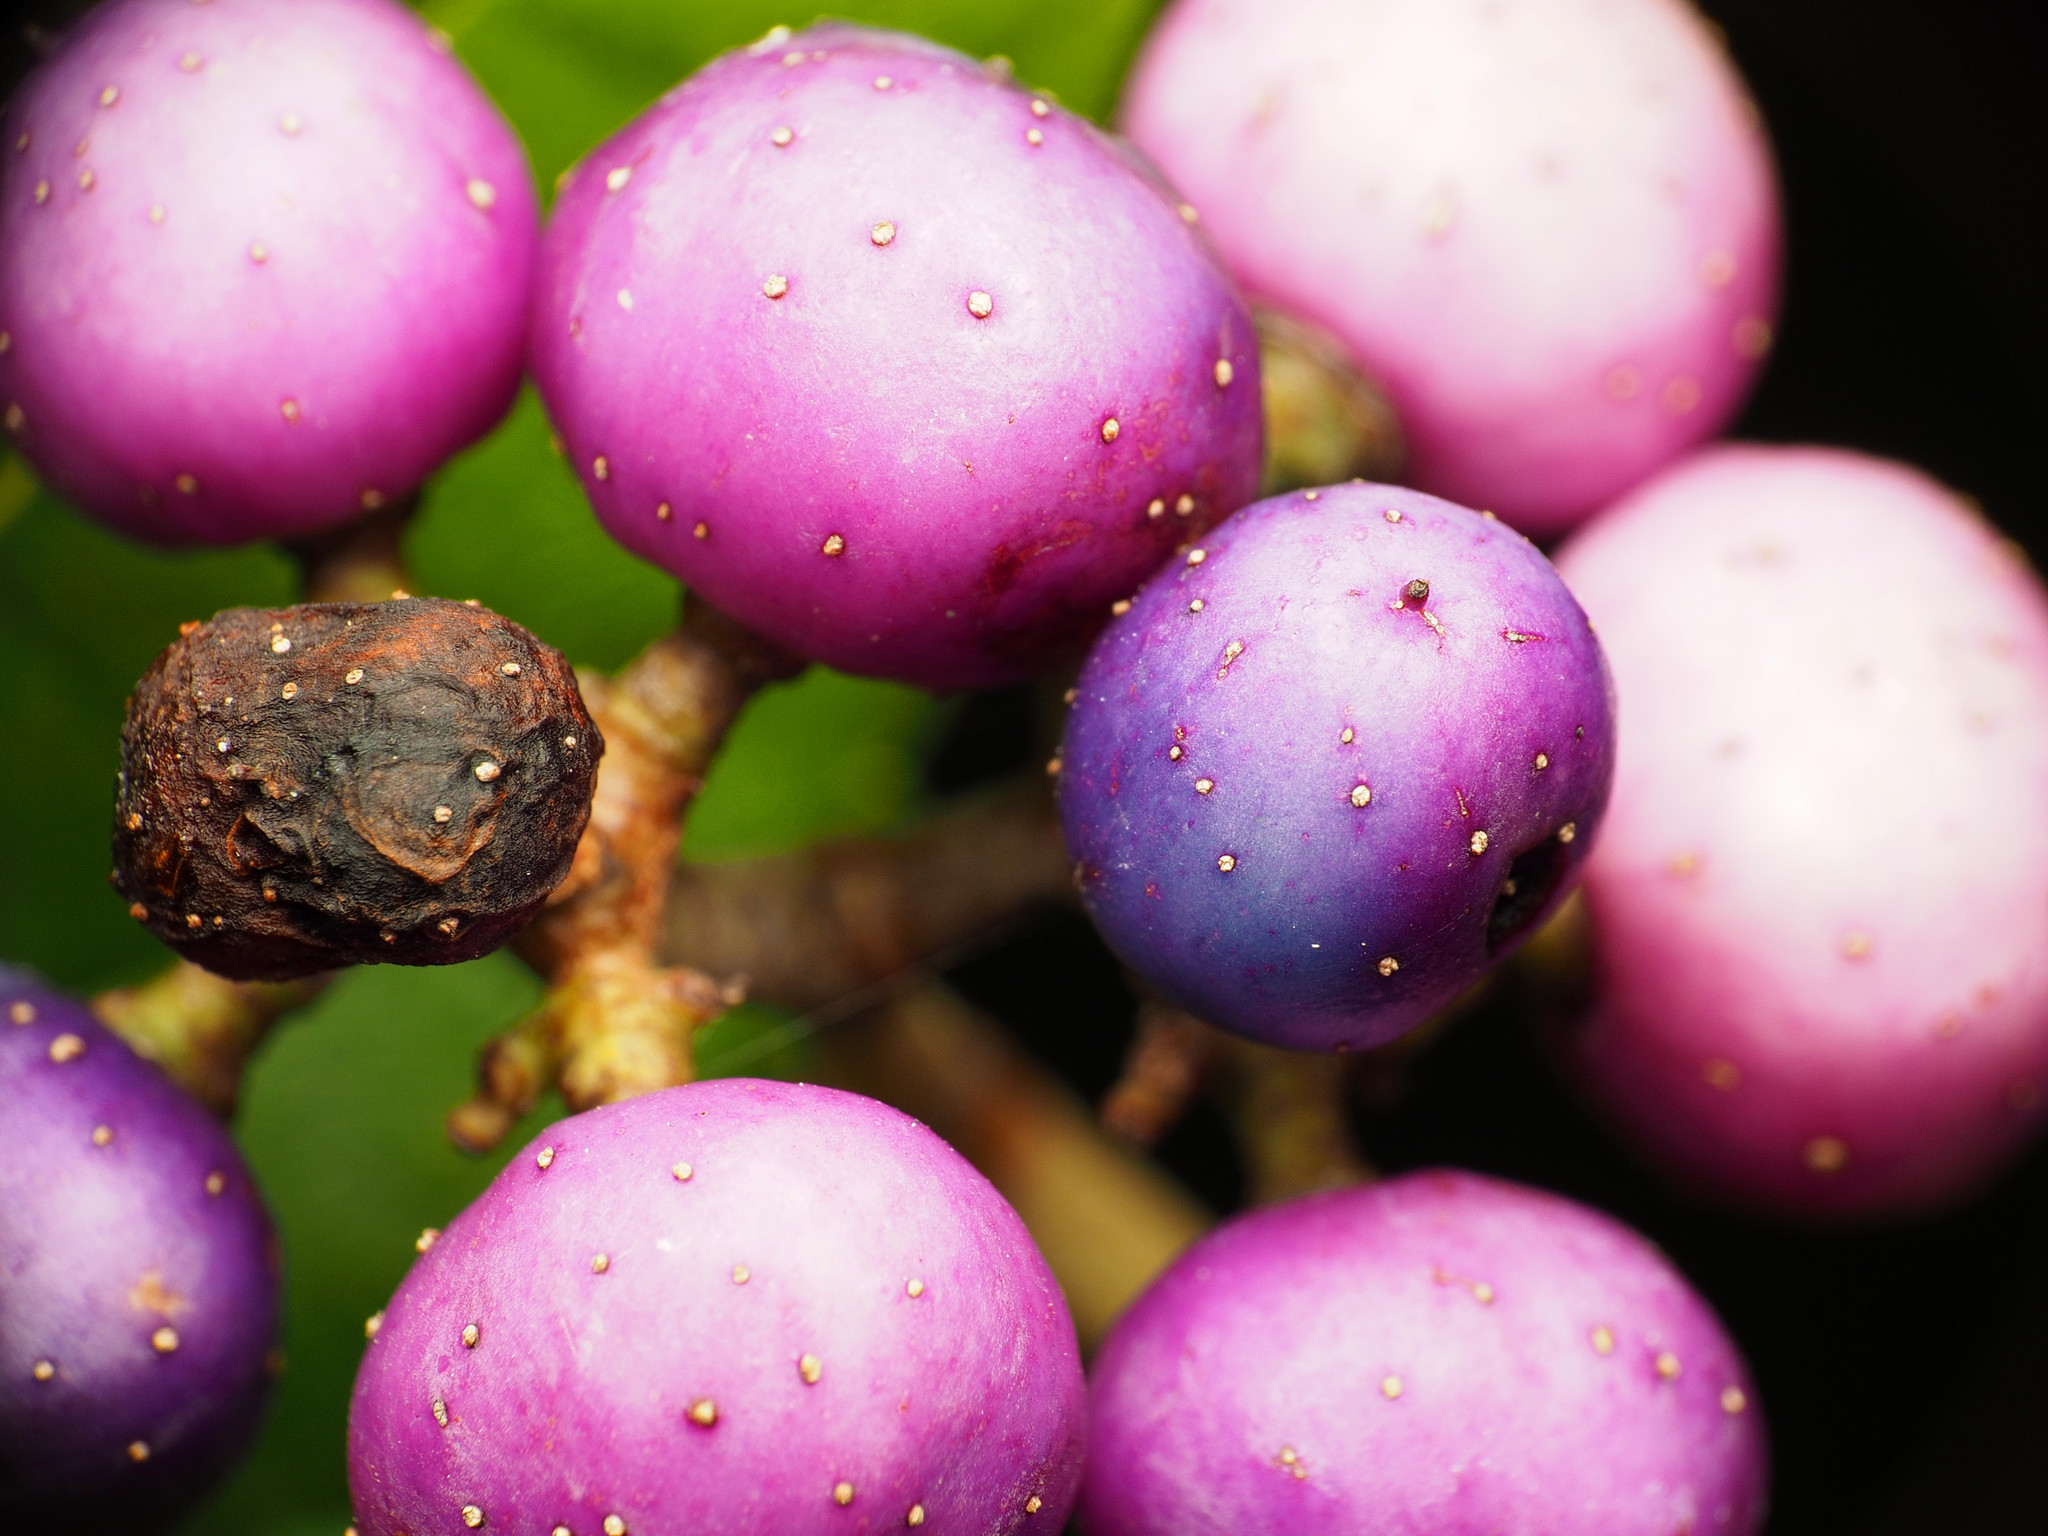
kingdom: Plantae
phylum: Tracheophyta
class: Magnoliopsida
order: Vitales
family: Vitaceae
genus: Ampelopsis
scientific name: Ampelopsis glandulosa
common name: Amur peppervine
